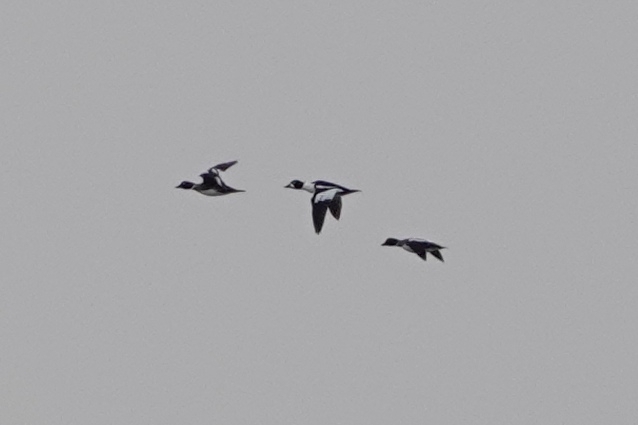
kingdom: Animalia
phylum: Chordata
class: Aves
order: Anseriformes
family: Anatidae
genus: Bucephala
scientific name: Bucephala clangula
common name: Common goldeneye
